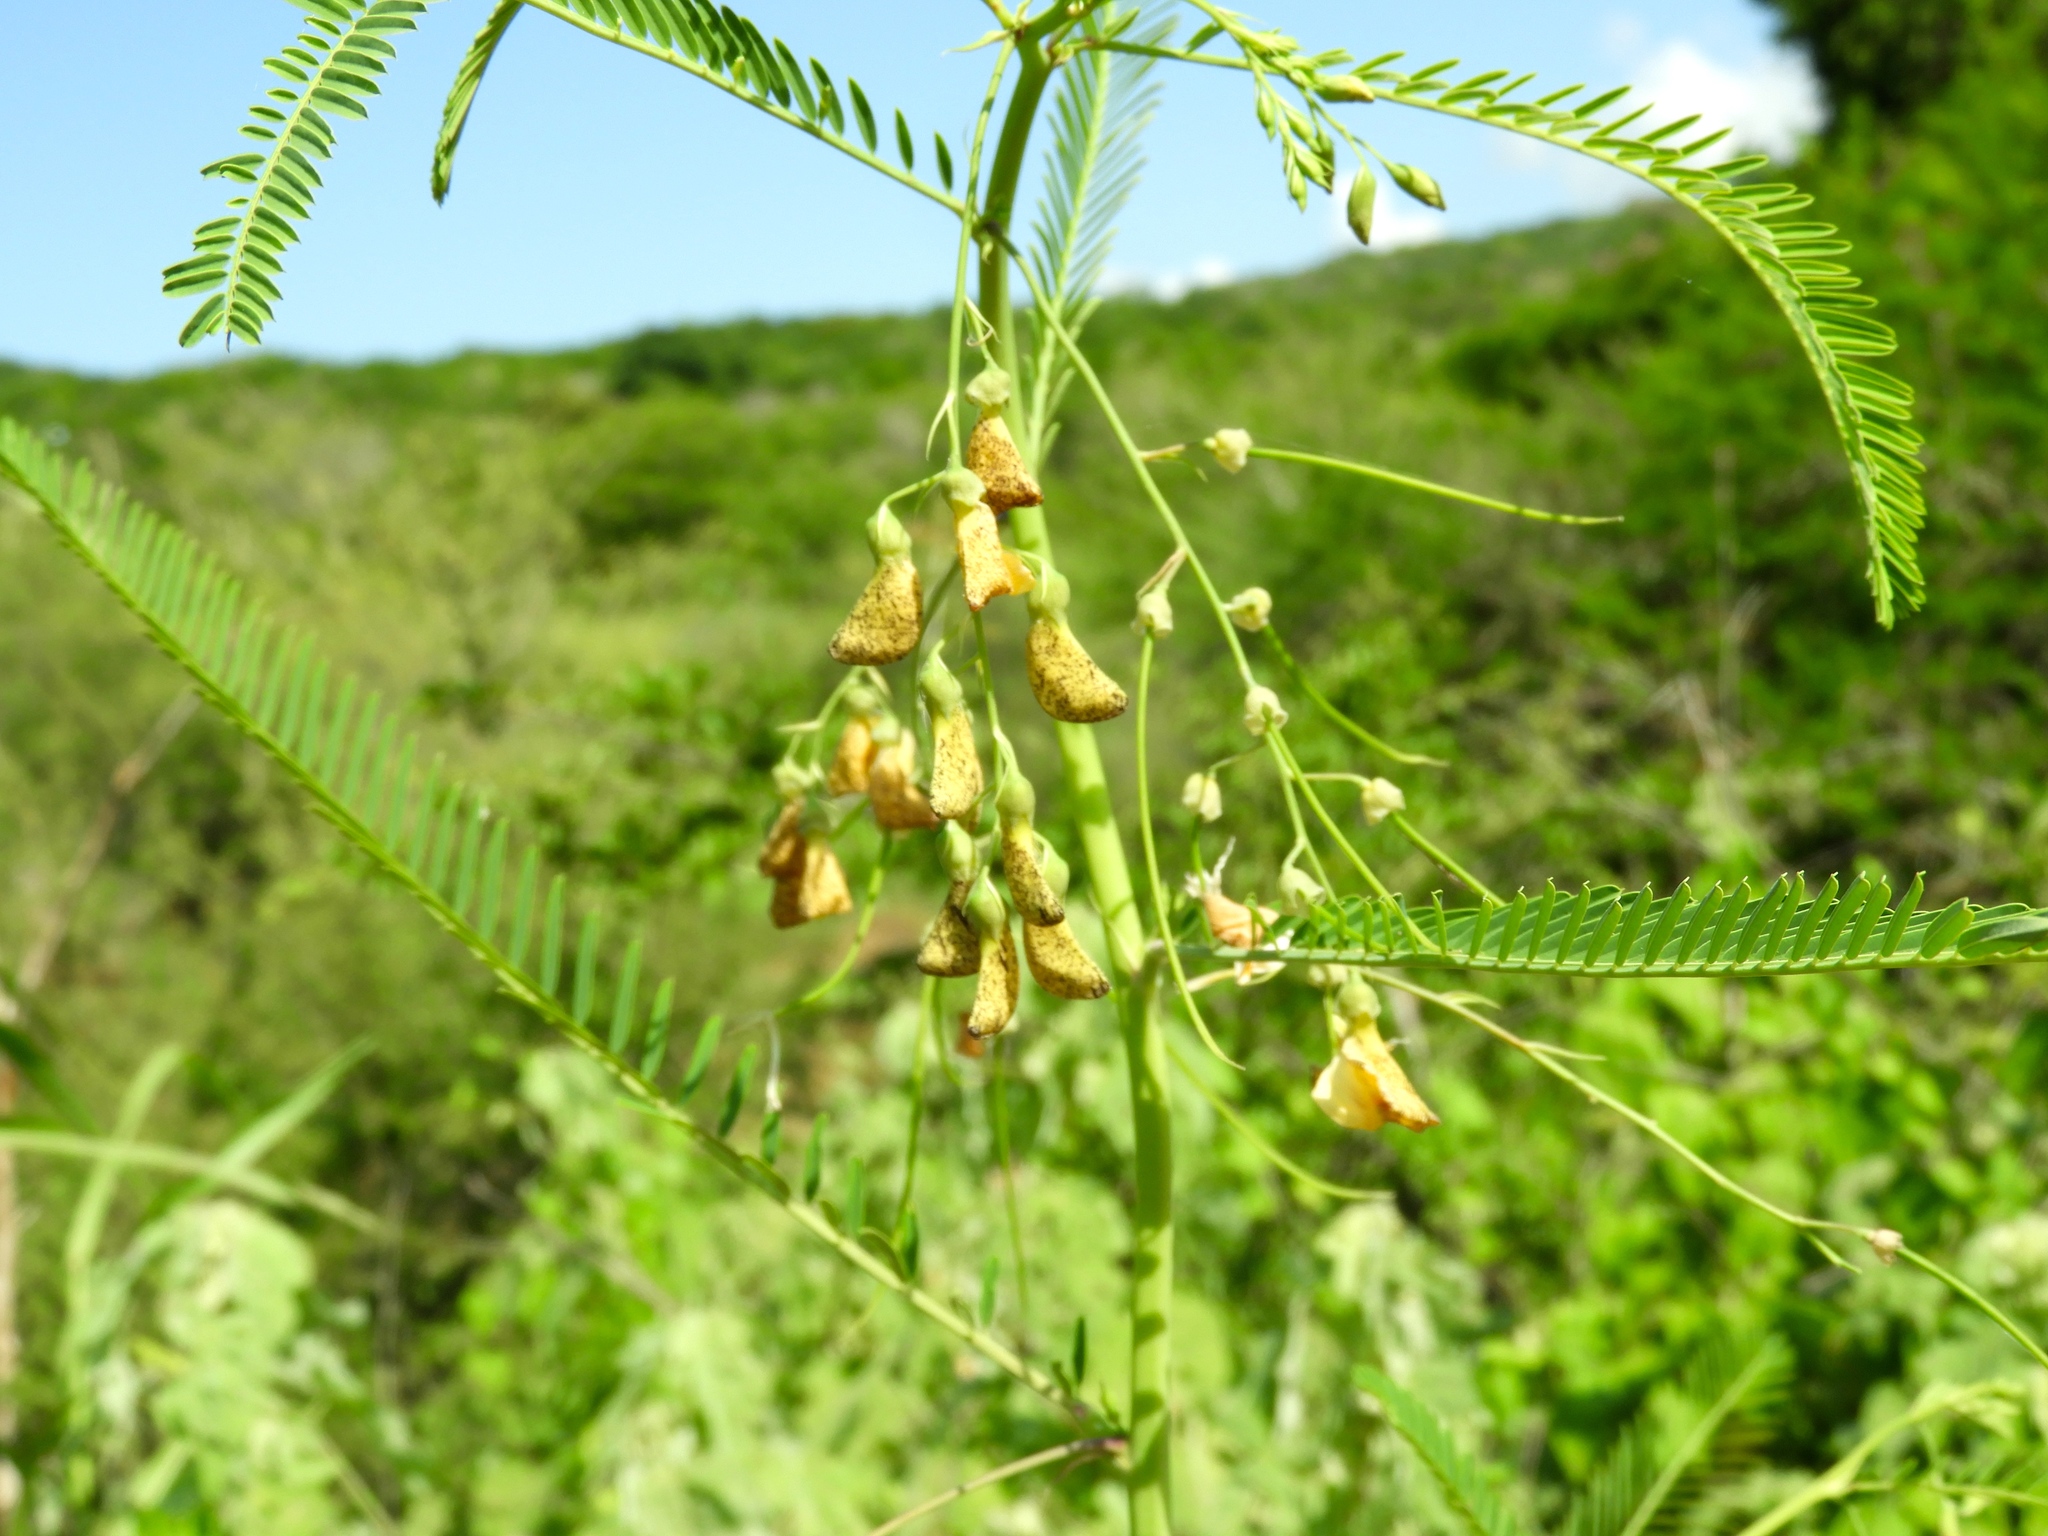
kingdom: Plantae
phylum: Tracheophyta
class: Magnoliopsida
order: Fabales
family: Fabaceae
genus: Sesbania
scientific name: Sesbania herbacea
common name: Bigpod sesbania
